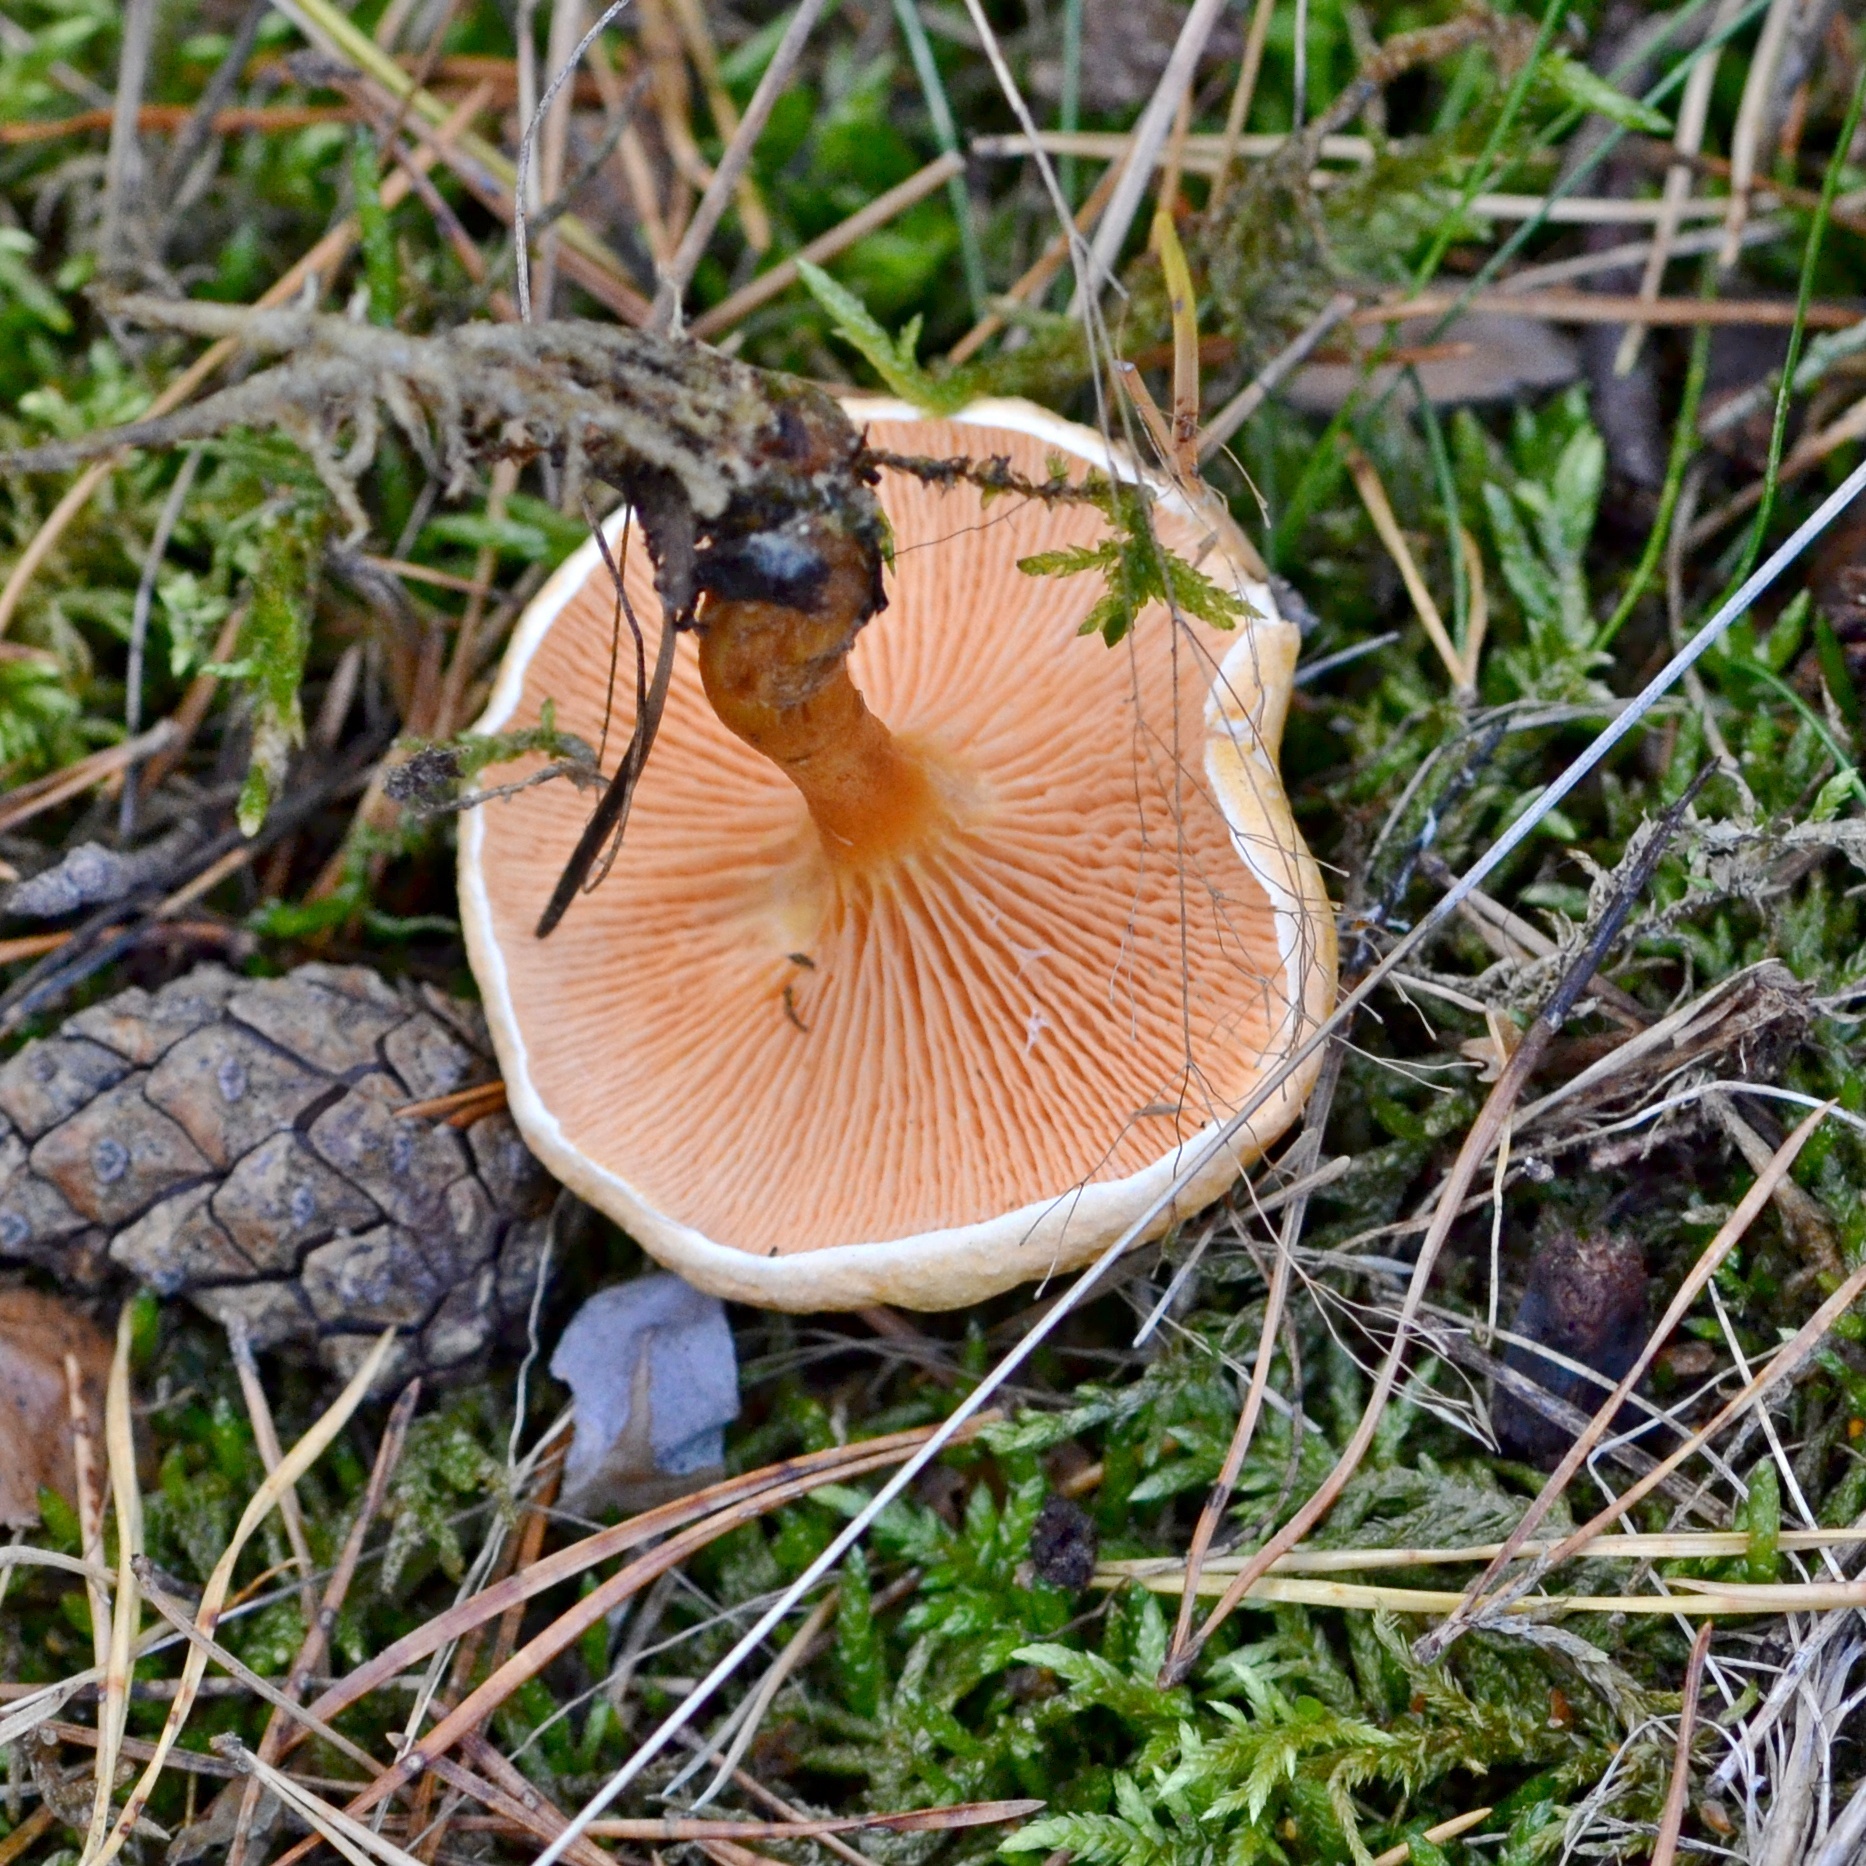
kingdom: Fungi
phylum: Basidiomycota
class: Agaricomycetes
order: Boletales
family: Hygrophoropsidaceae
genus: Hygrophoropsis
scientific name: Hygrophoropsis aurantiaca
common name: False chanterelle
